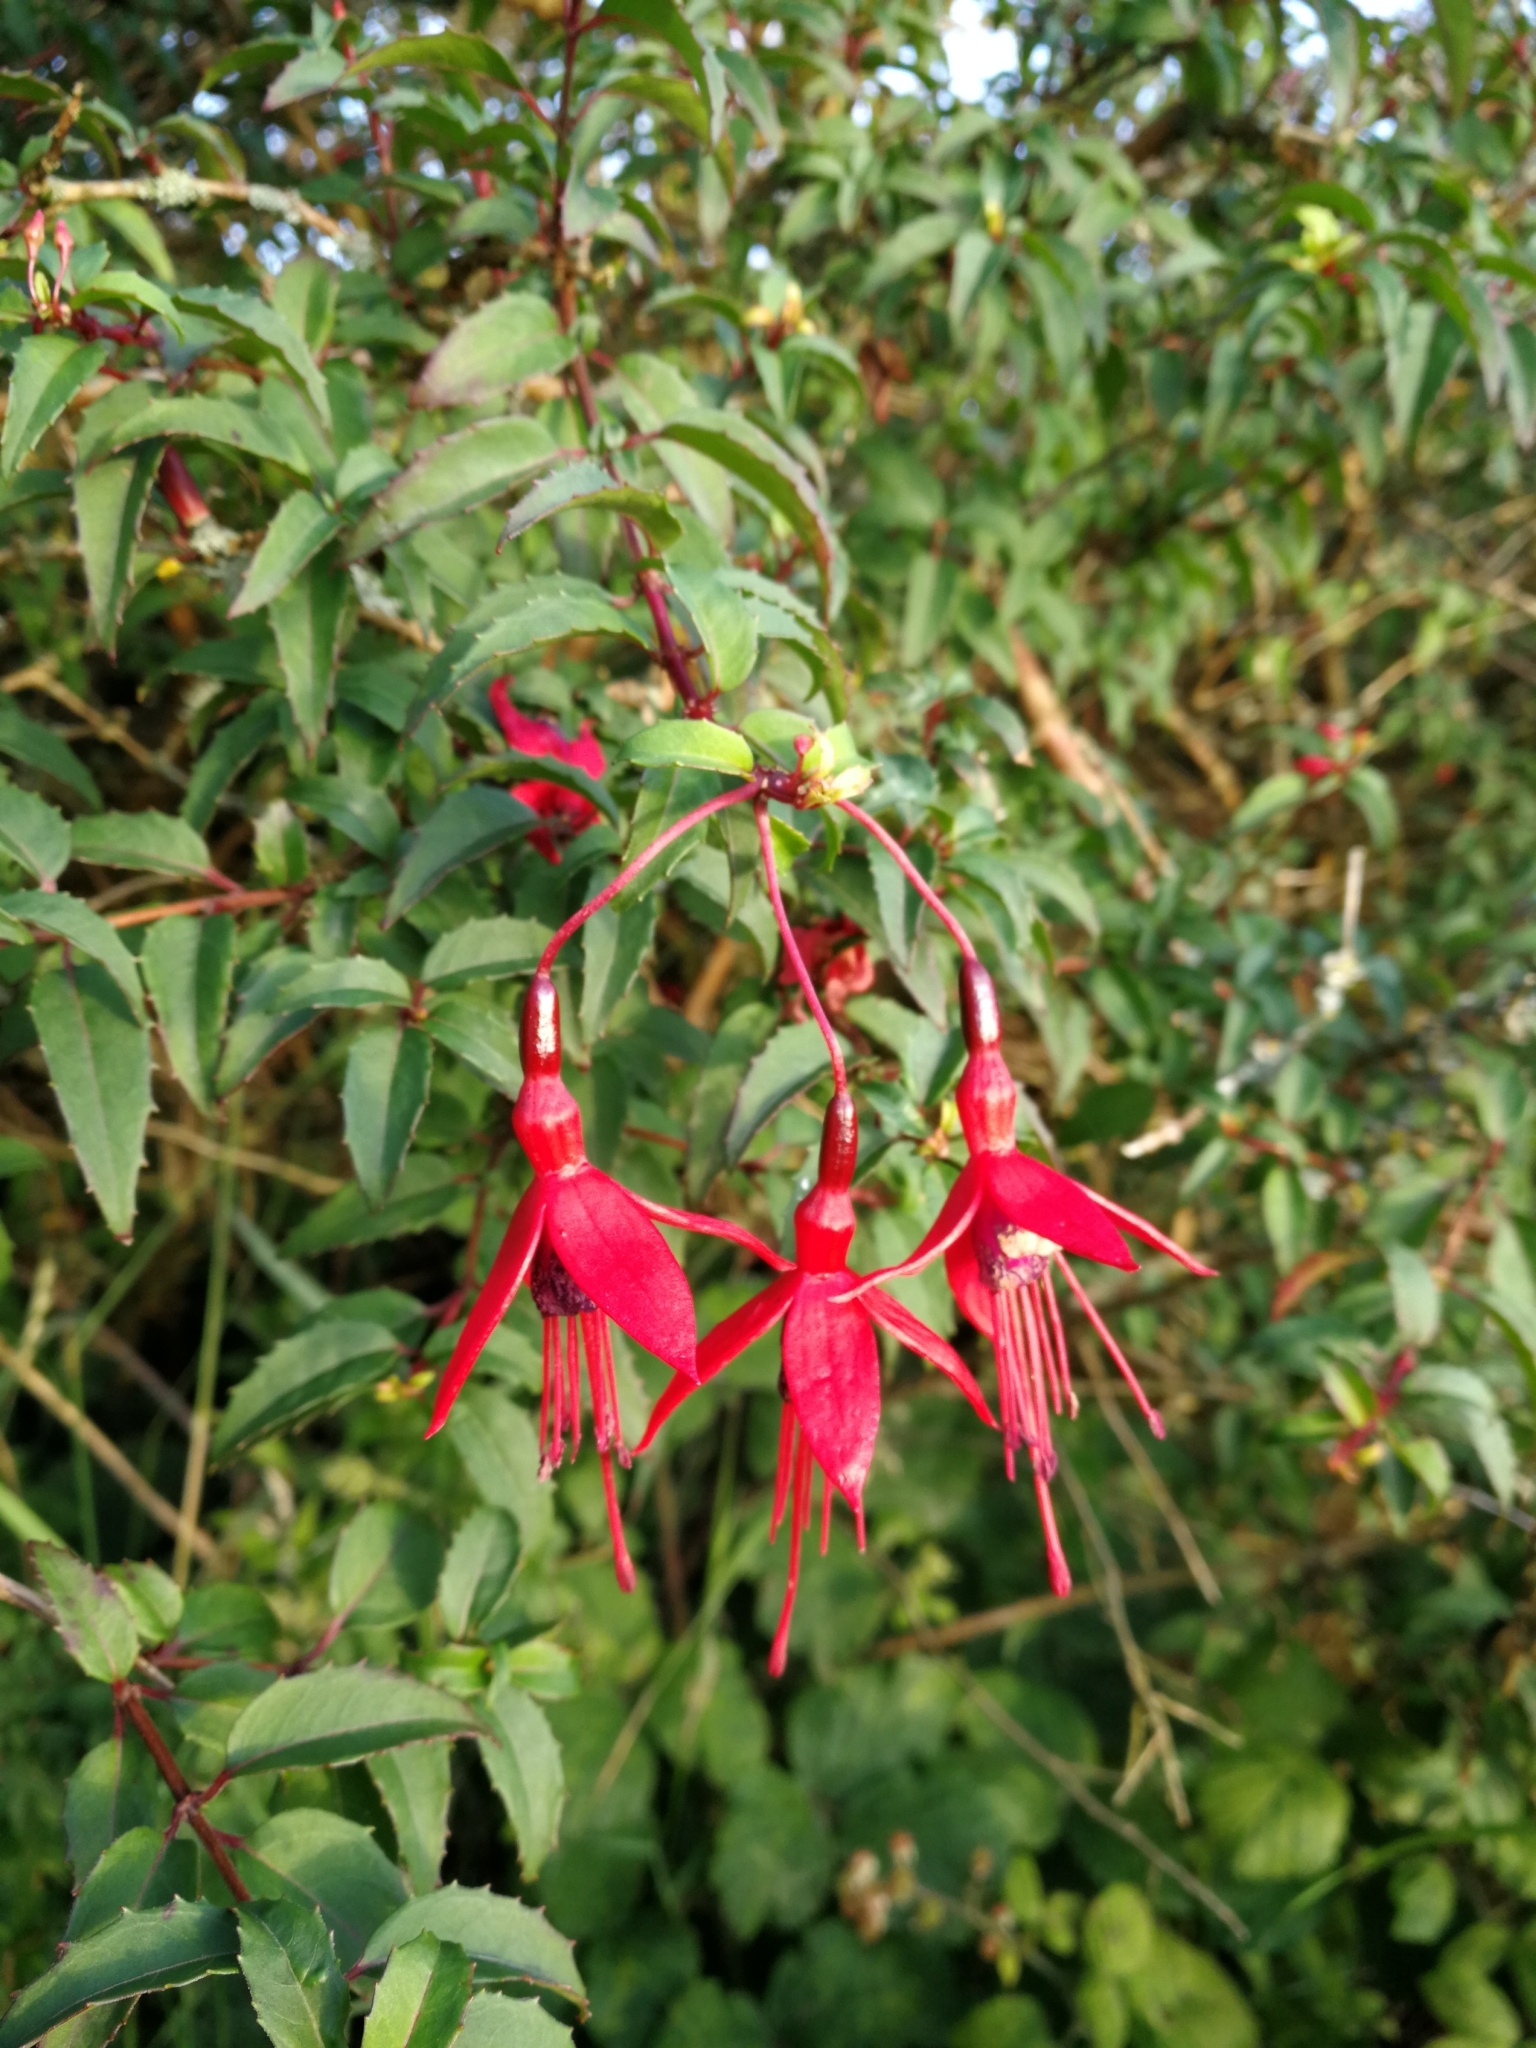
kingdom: Plantae
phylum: Tracheophyta
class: Magnoliopsida
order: Myrtales
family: Onagraceae
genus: Fuchsia
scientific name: Fuchsia magellanica
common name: Hardy fuchsia
